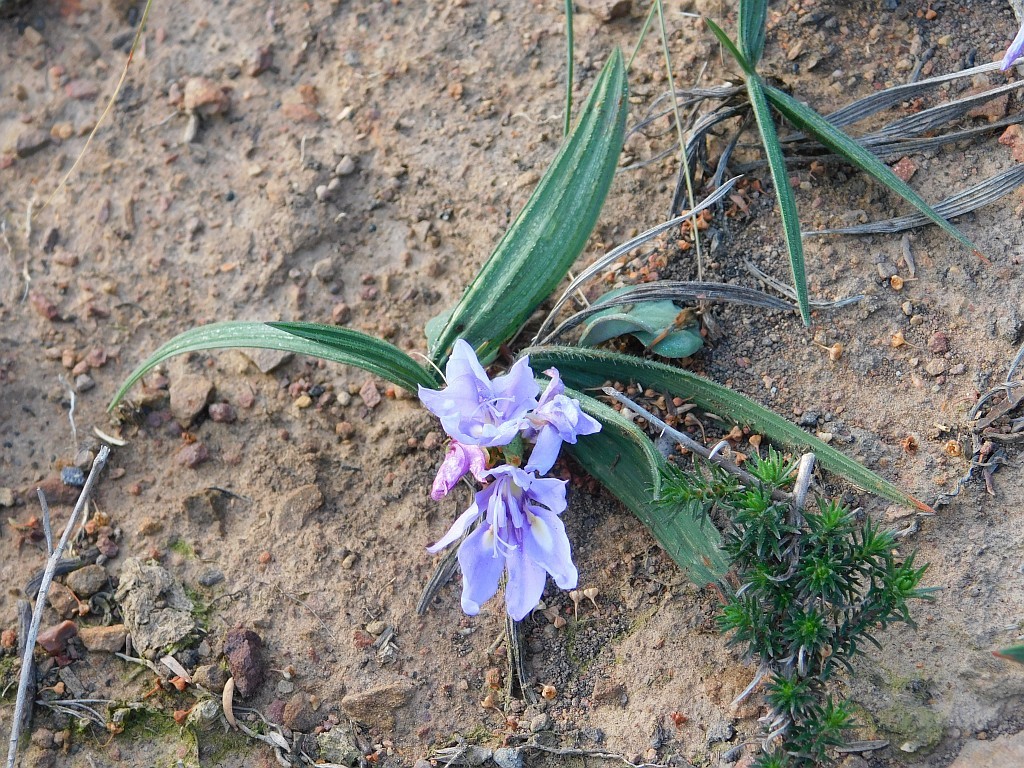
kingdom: Plantae
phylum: Tracheophyta
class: Liliopsida
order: Asparagales
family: Iridaceae
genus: Babiana
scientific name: Babiana ambigua
